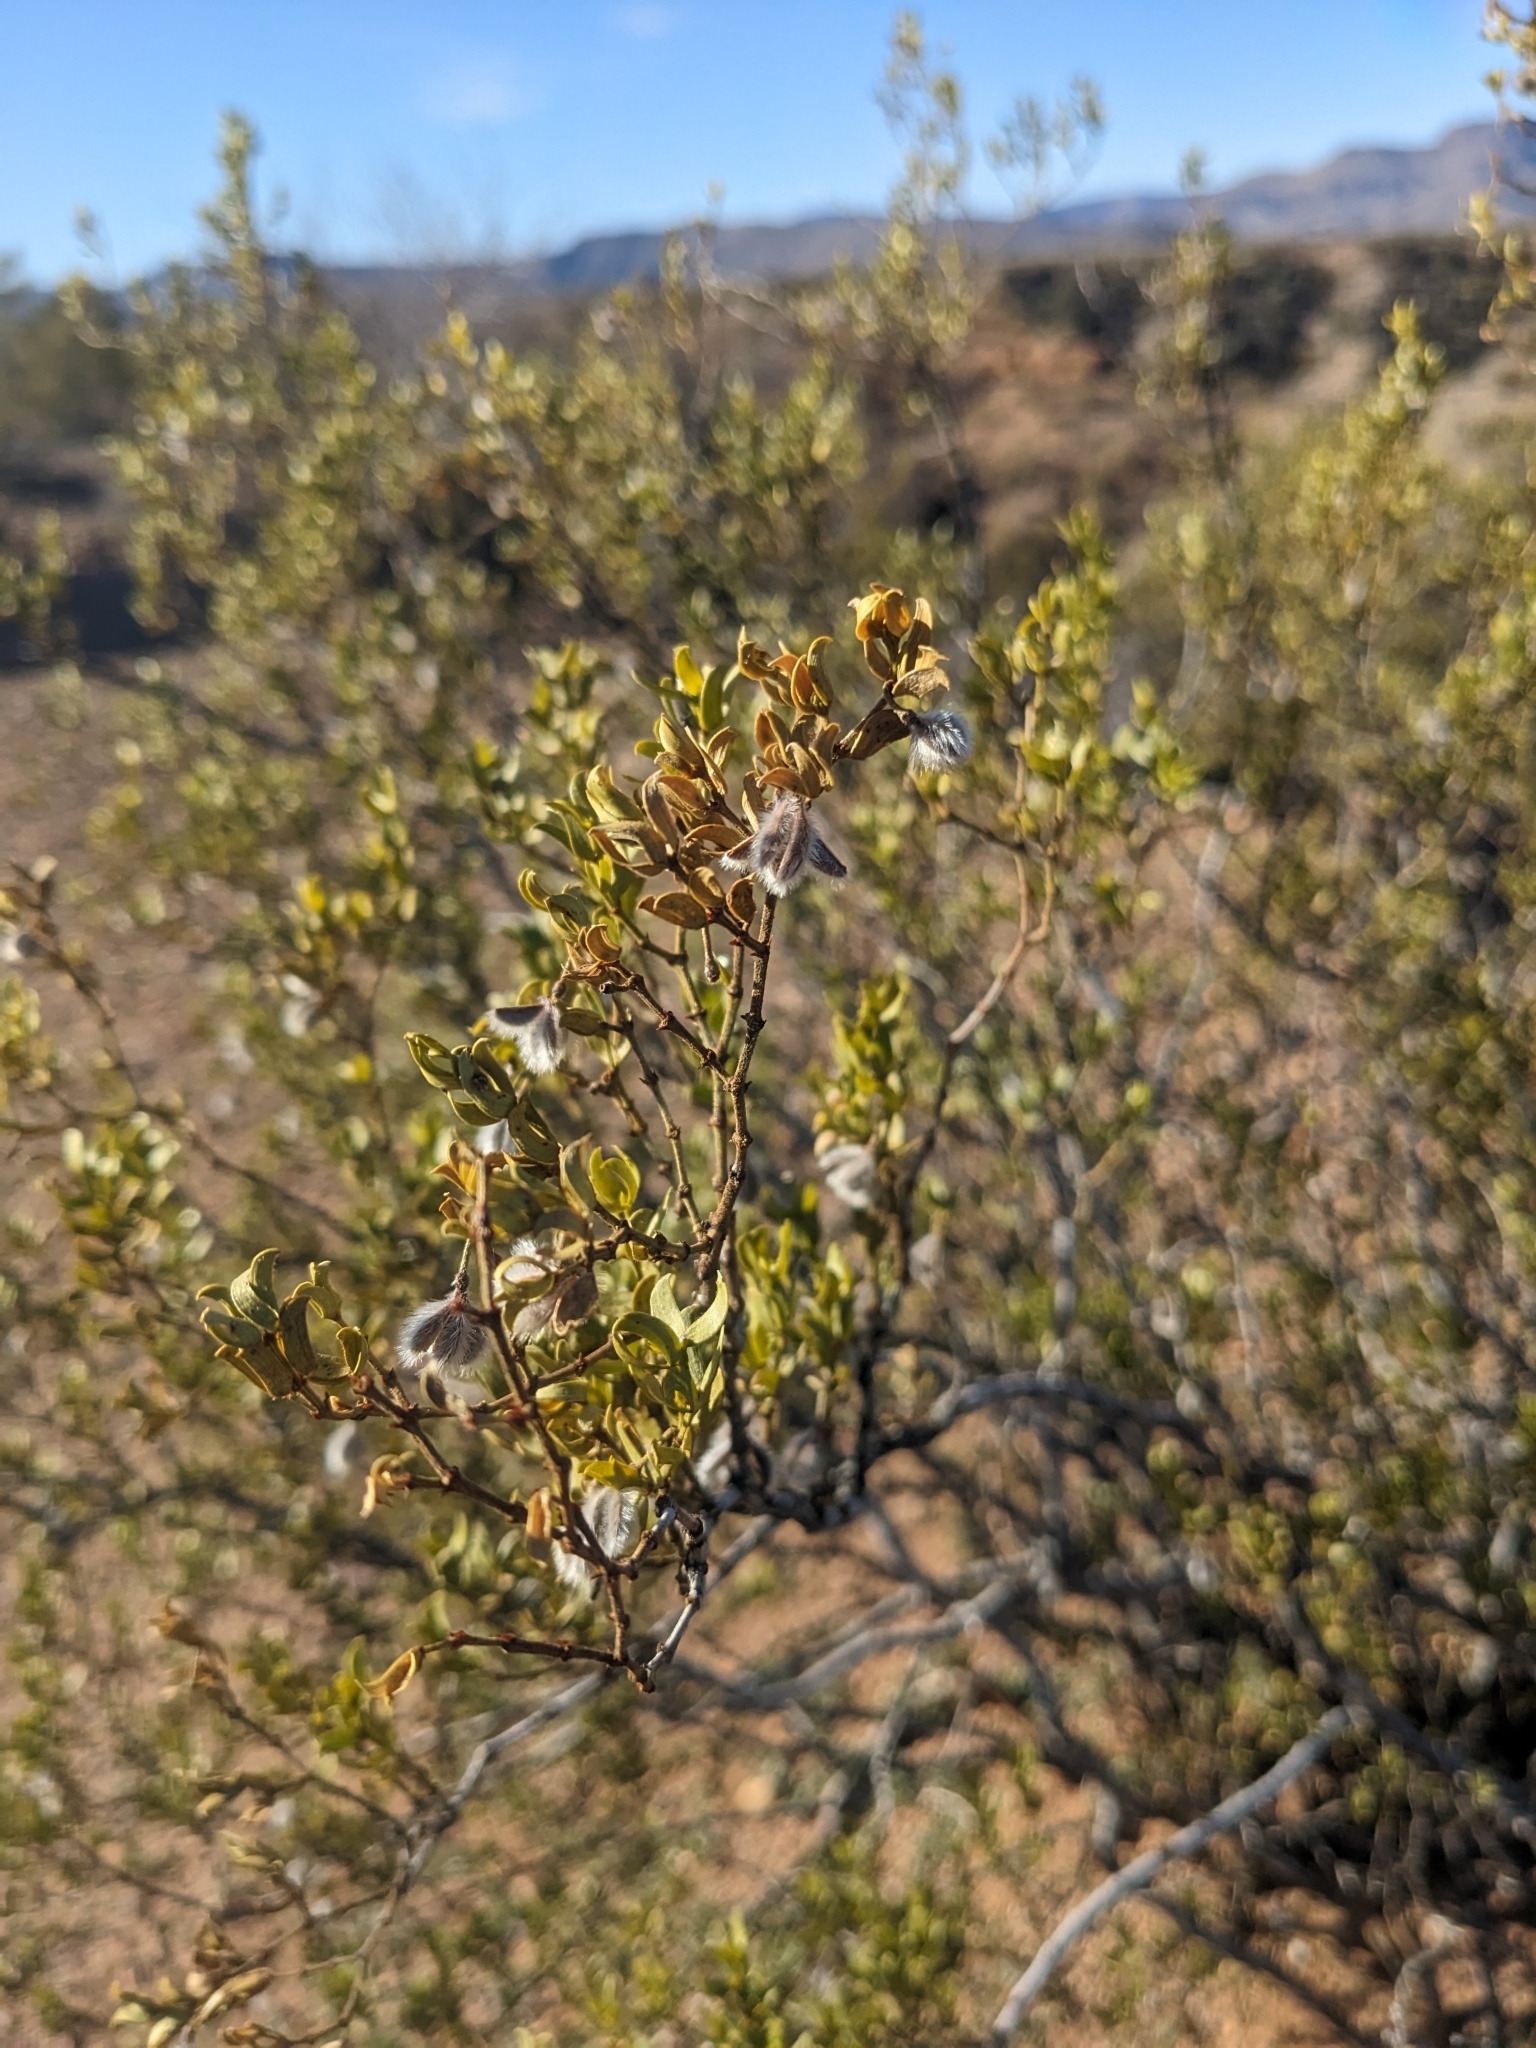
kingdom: Plantae
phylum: Tracheophyta
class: Magnoliopsida
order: Zygophyllales
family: Zygophyllaceae
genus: Larrea
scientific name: Larrea tridentata
